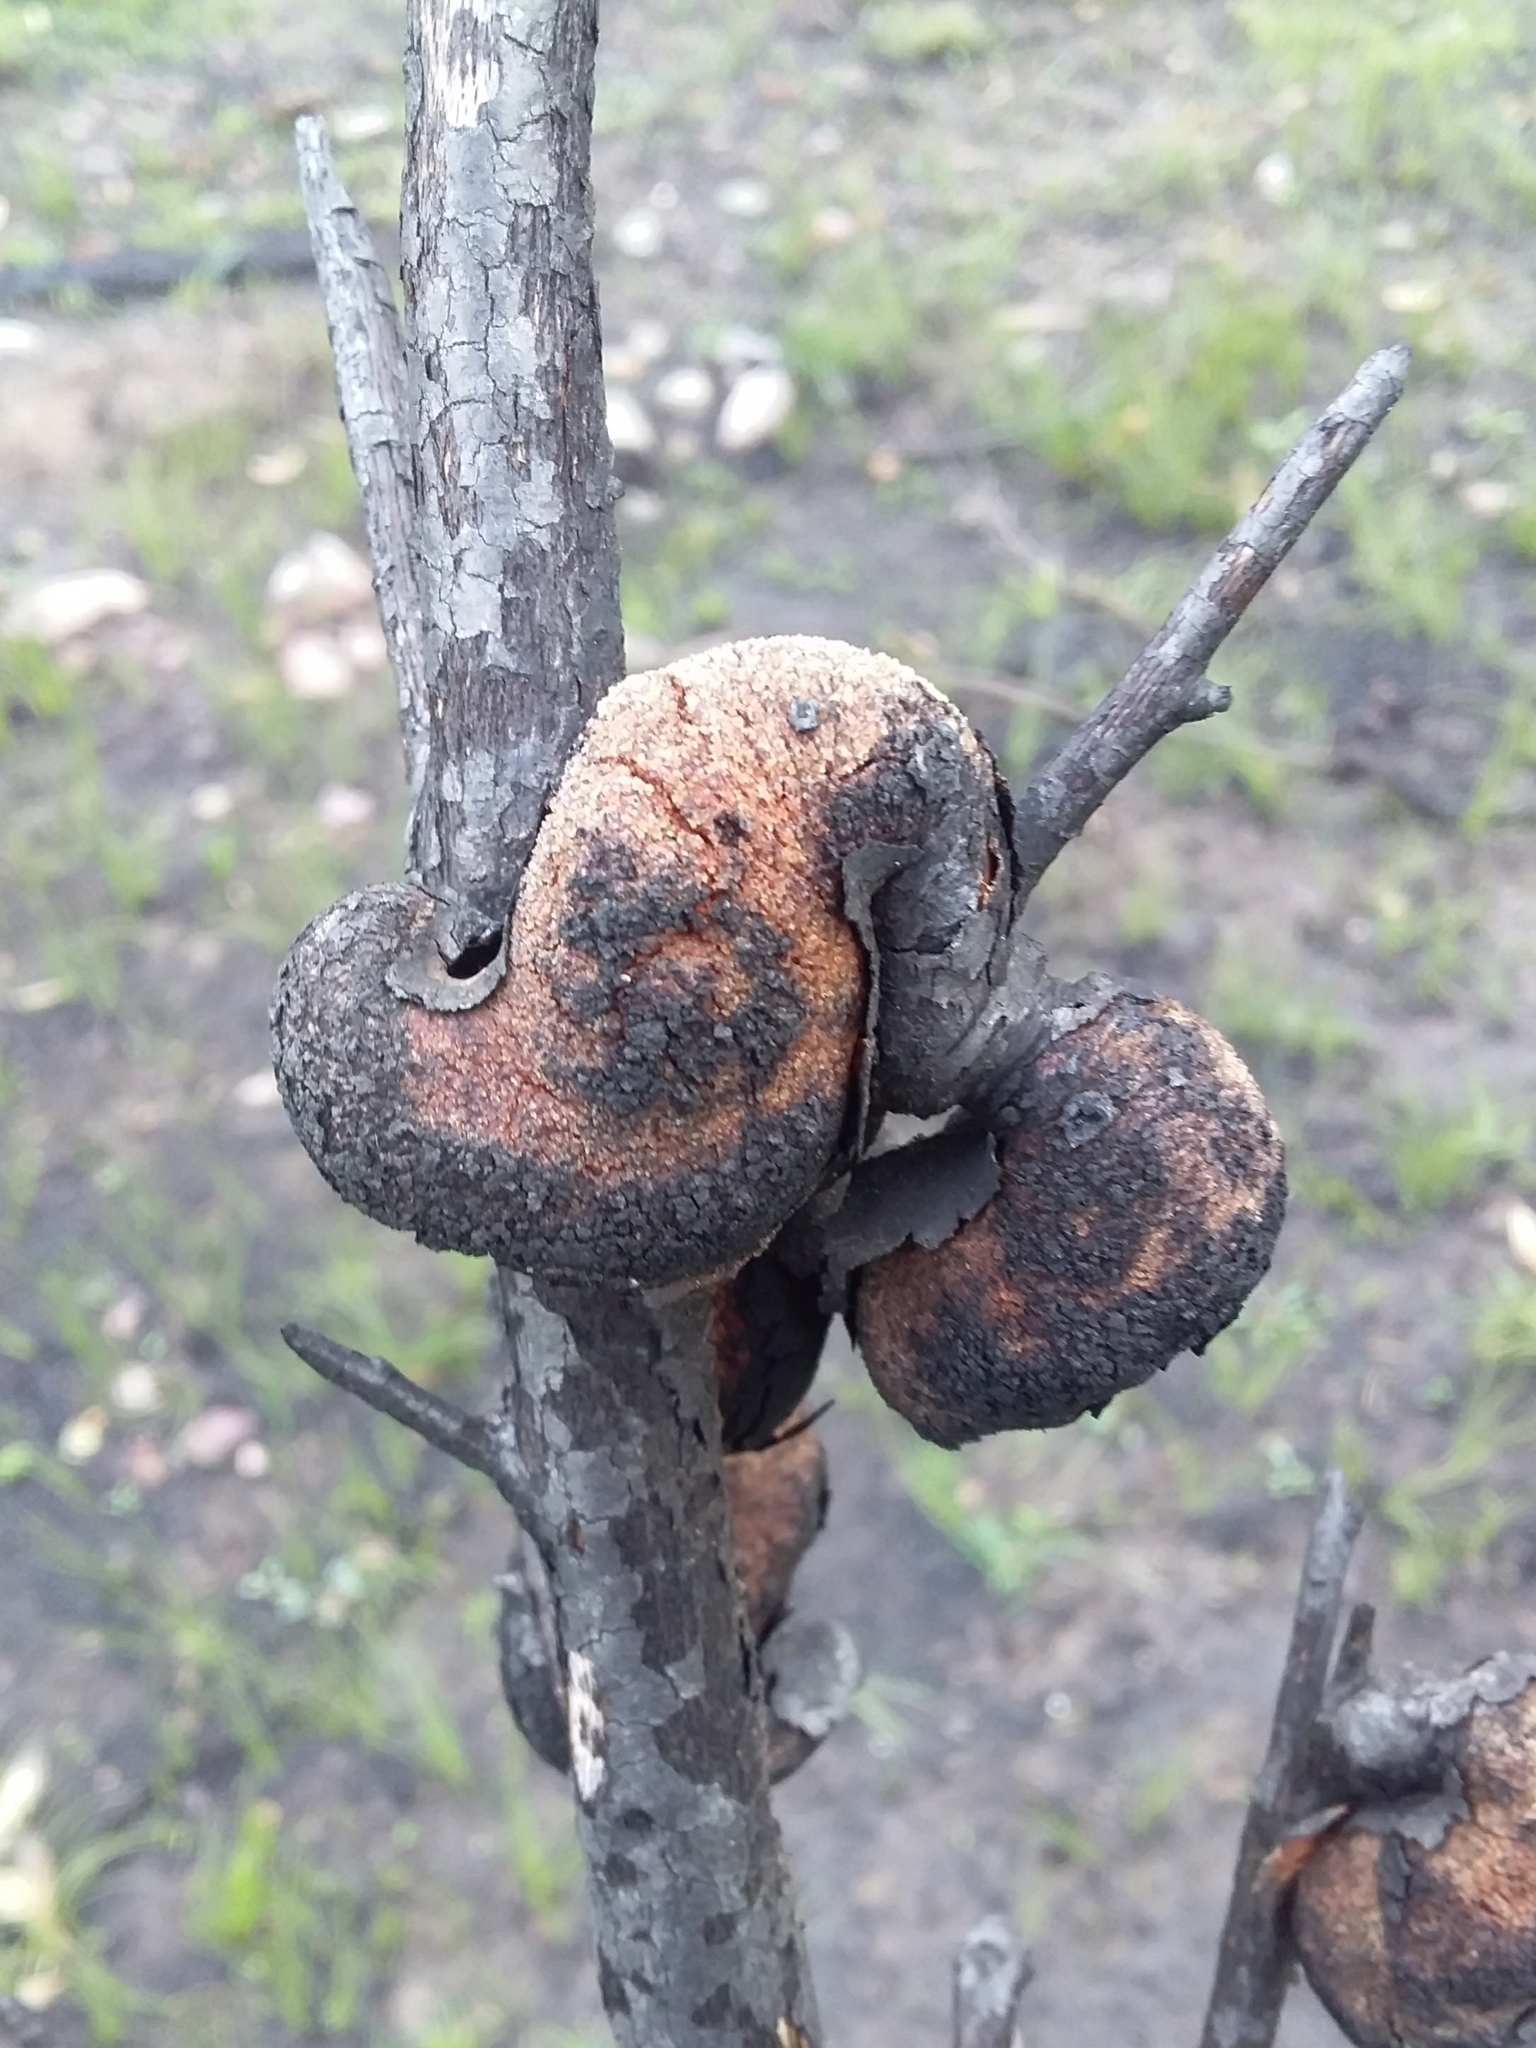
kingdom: Plantae
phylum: Tracheophyta
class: Magnoliopsida
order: Proteales
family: Proteaceae
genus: Hakea
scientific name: Hakea rostrata
